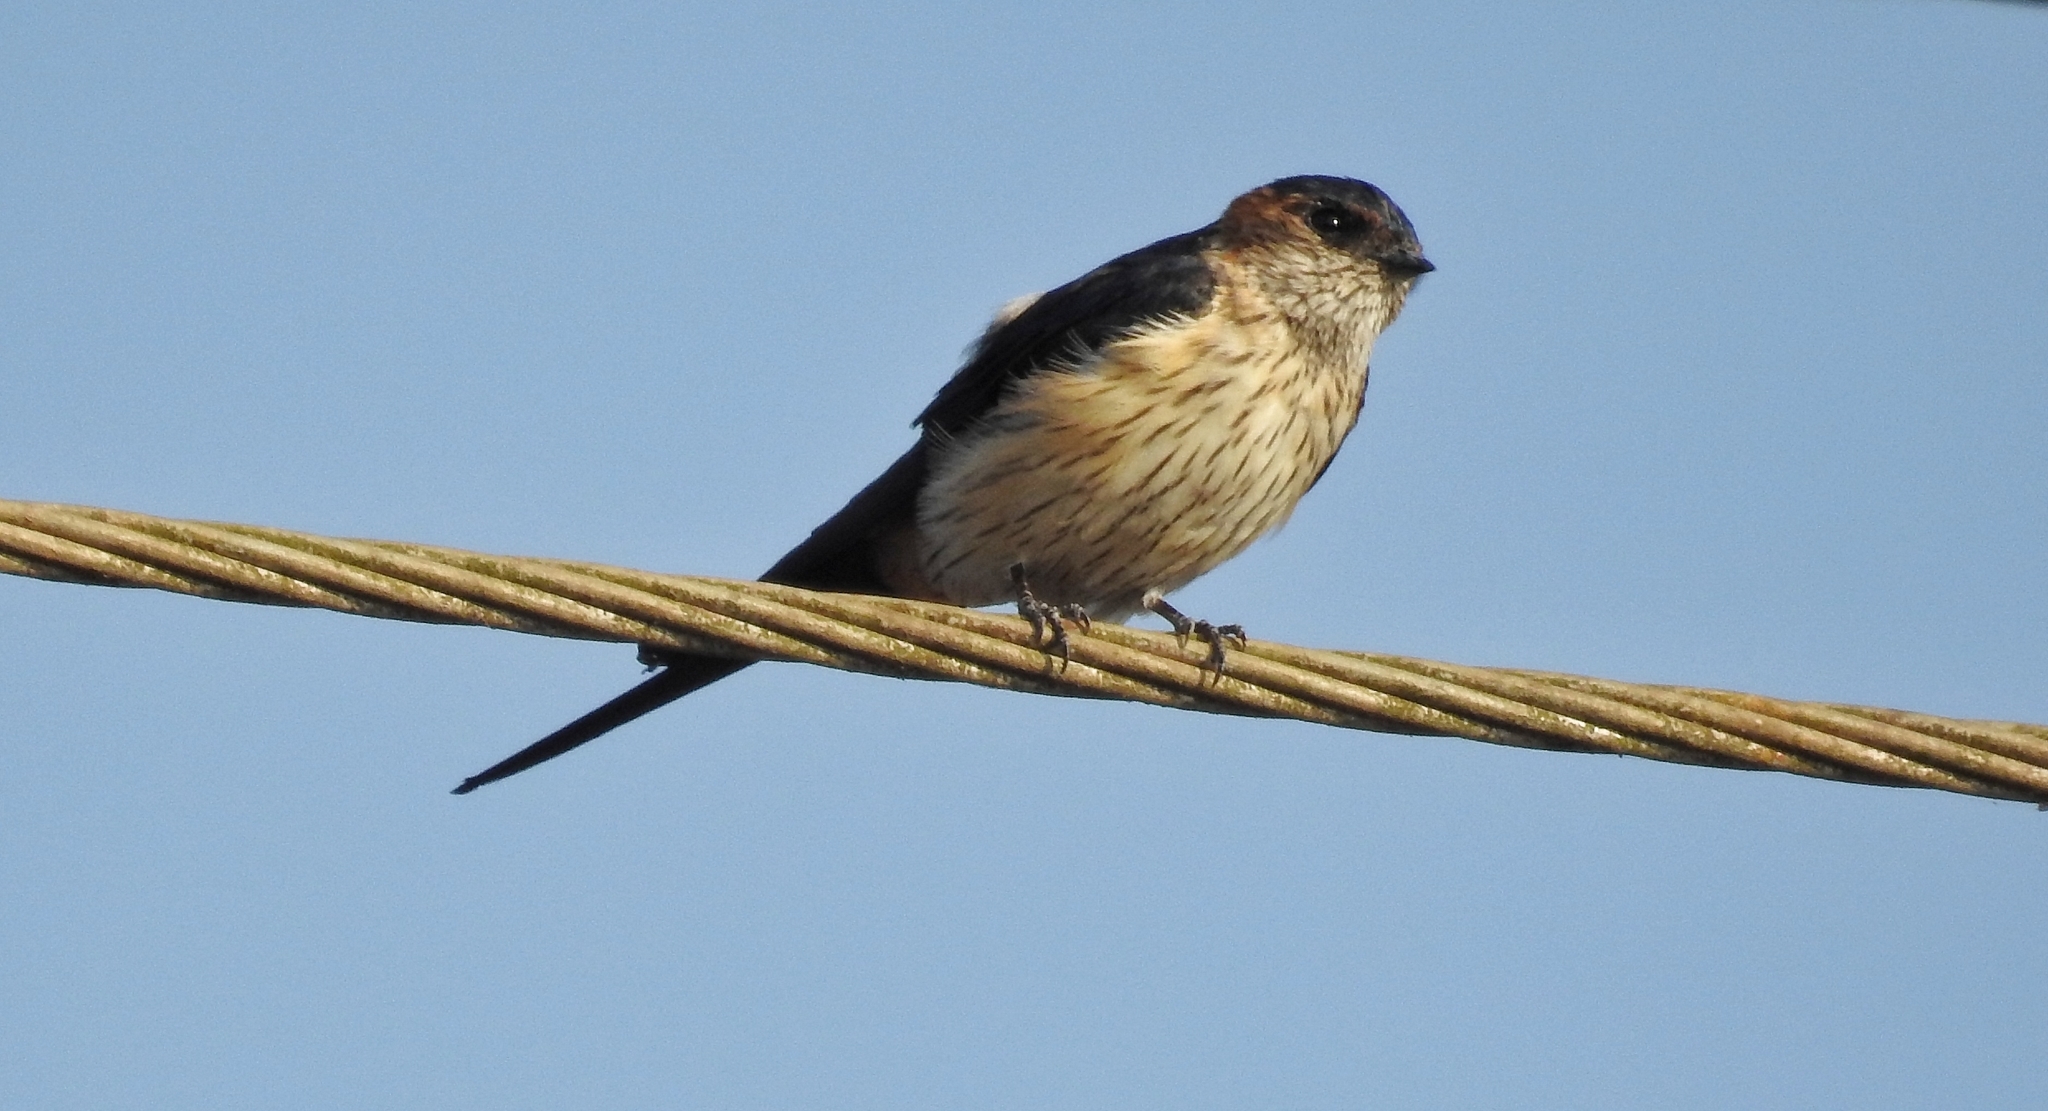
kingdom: Animalia
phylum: Chordata
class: Aves
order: Passeriformes
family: Hirundinidae
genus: Cecropis
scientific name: Cecropis daurica
